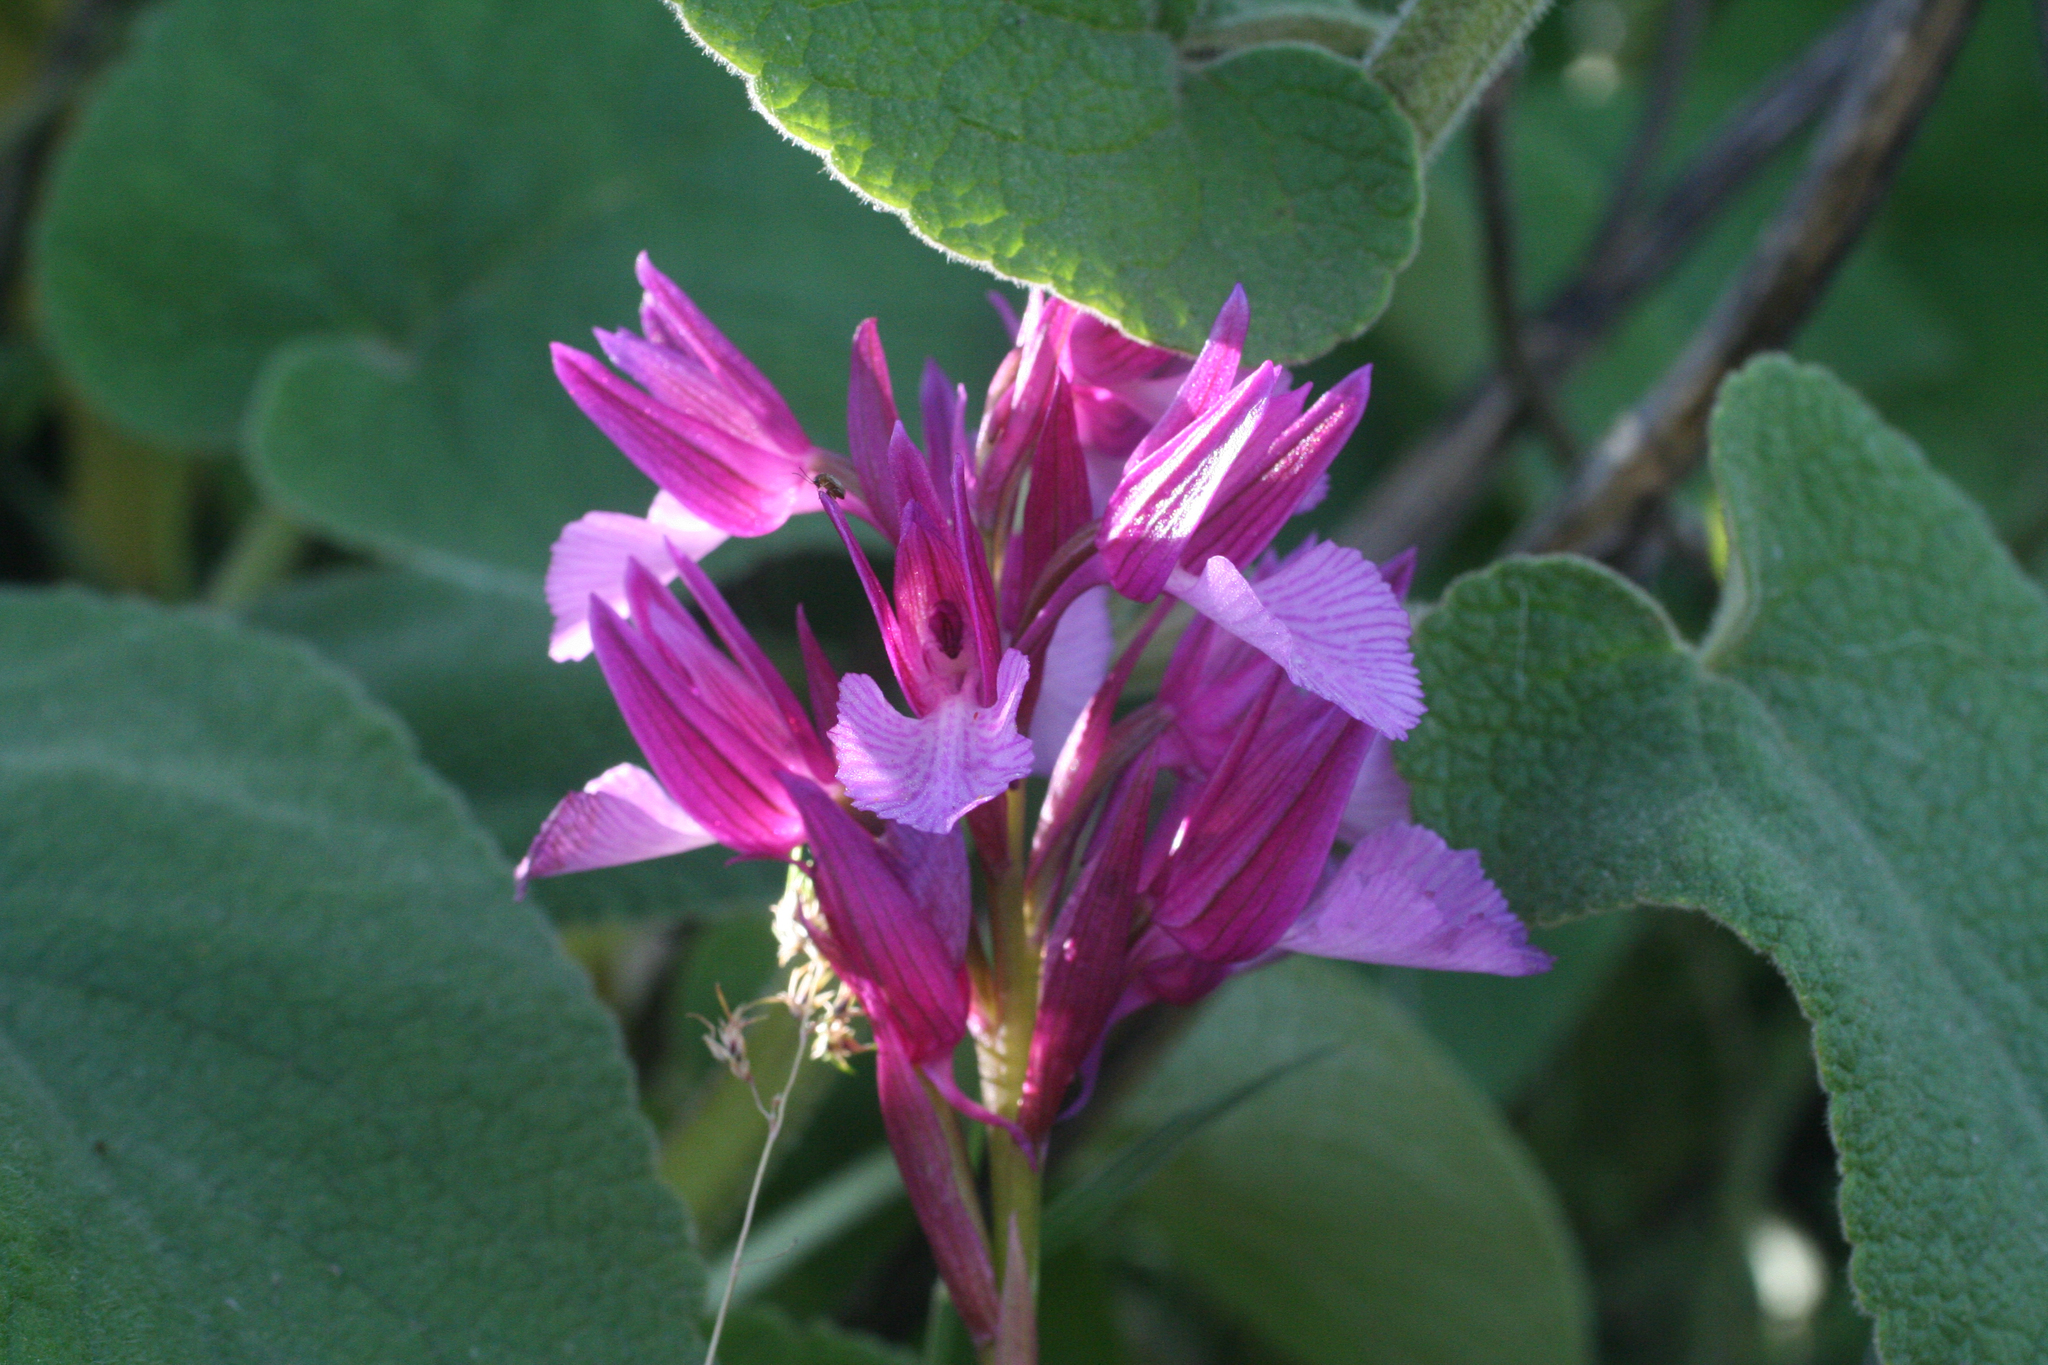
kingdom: Plantae
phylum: Tracheophyta
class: Liliopsida
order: Asparagales
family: Orchidaceae
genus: Anacamptis
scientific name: Anacamptis papilionacea
